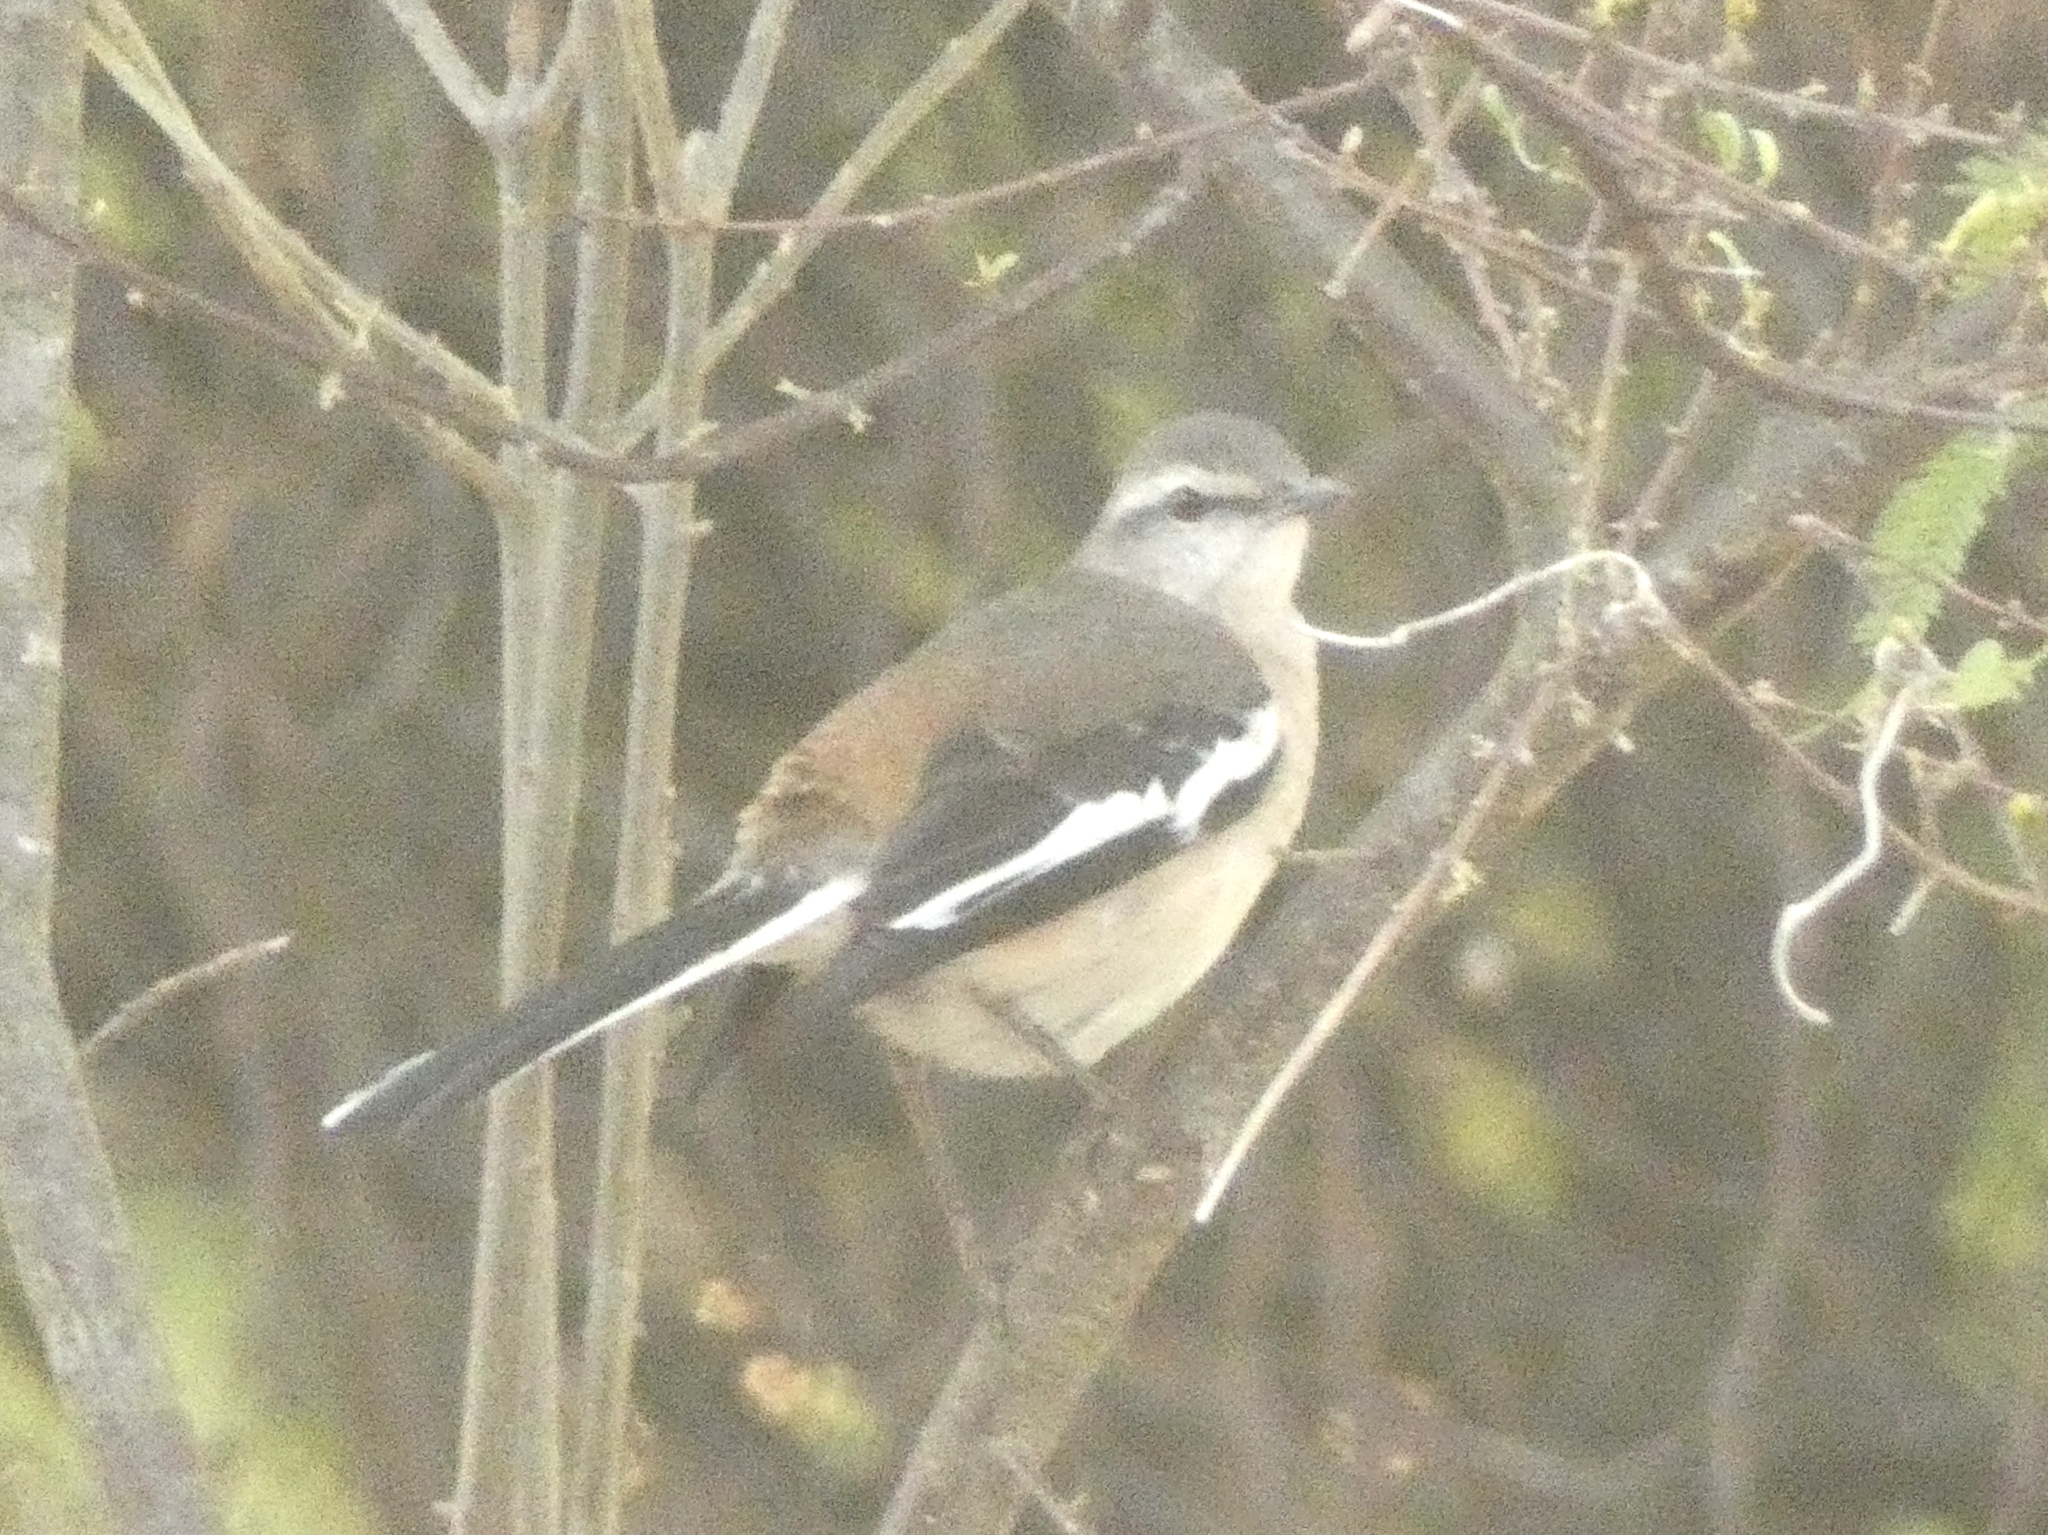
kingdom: Animalia
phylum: Chordata
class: Aves
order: Passeriformes
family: Mimidae
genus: Mimus
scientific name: Mimus triurus
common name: White-banded mockingbird
